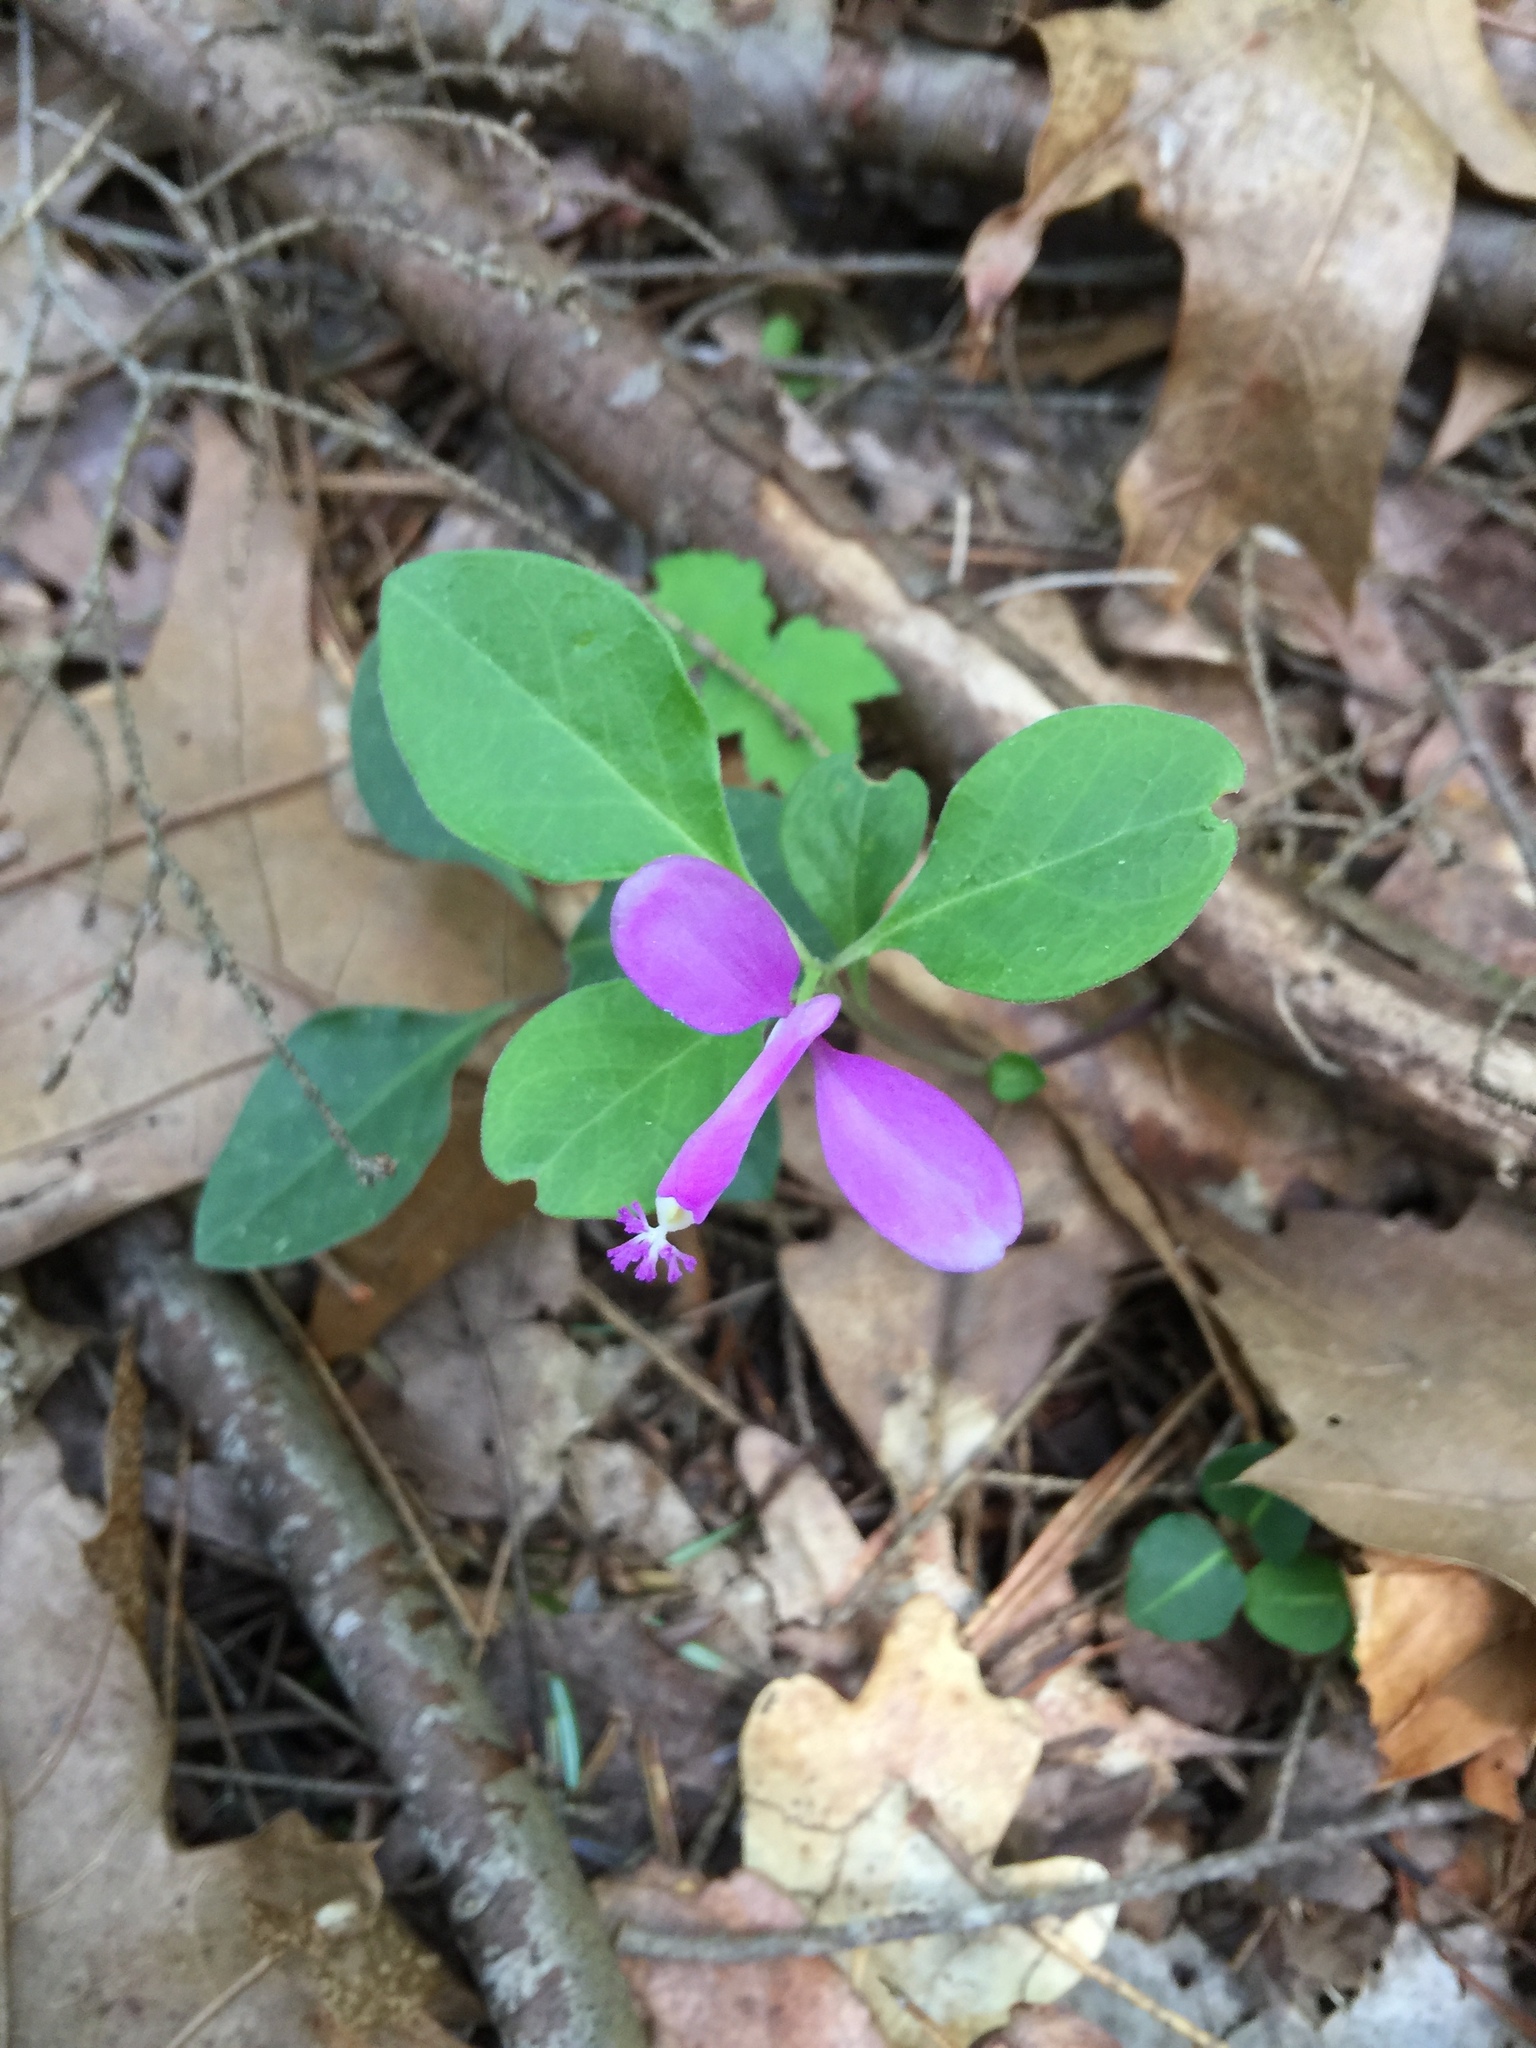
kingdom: Plantae
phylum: Tracheophyta
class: Magnoliopsida
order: Fabales
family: Polygalaceae
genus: Polygaloides
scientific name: Polygaloides paucifolia
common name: Bird-on-the-wing
